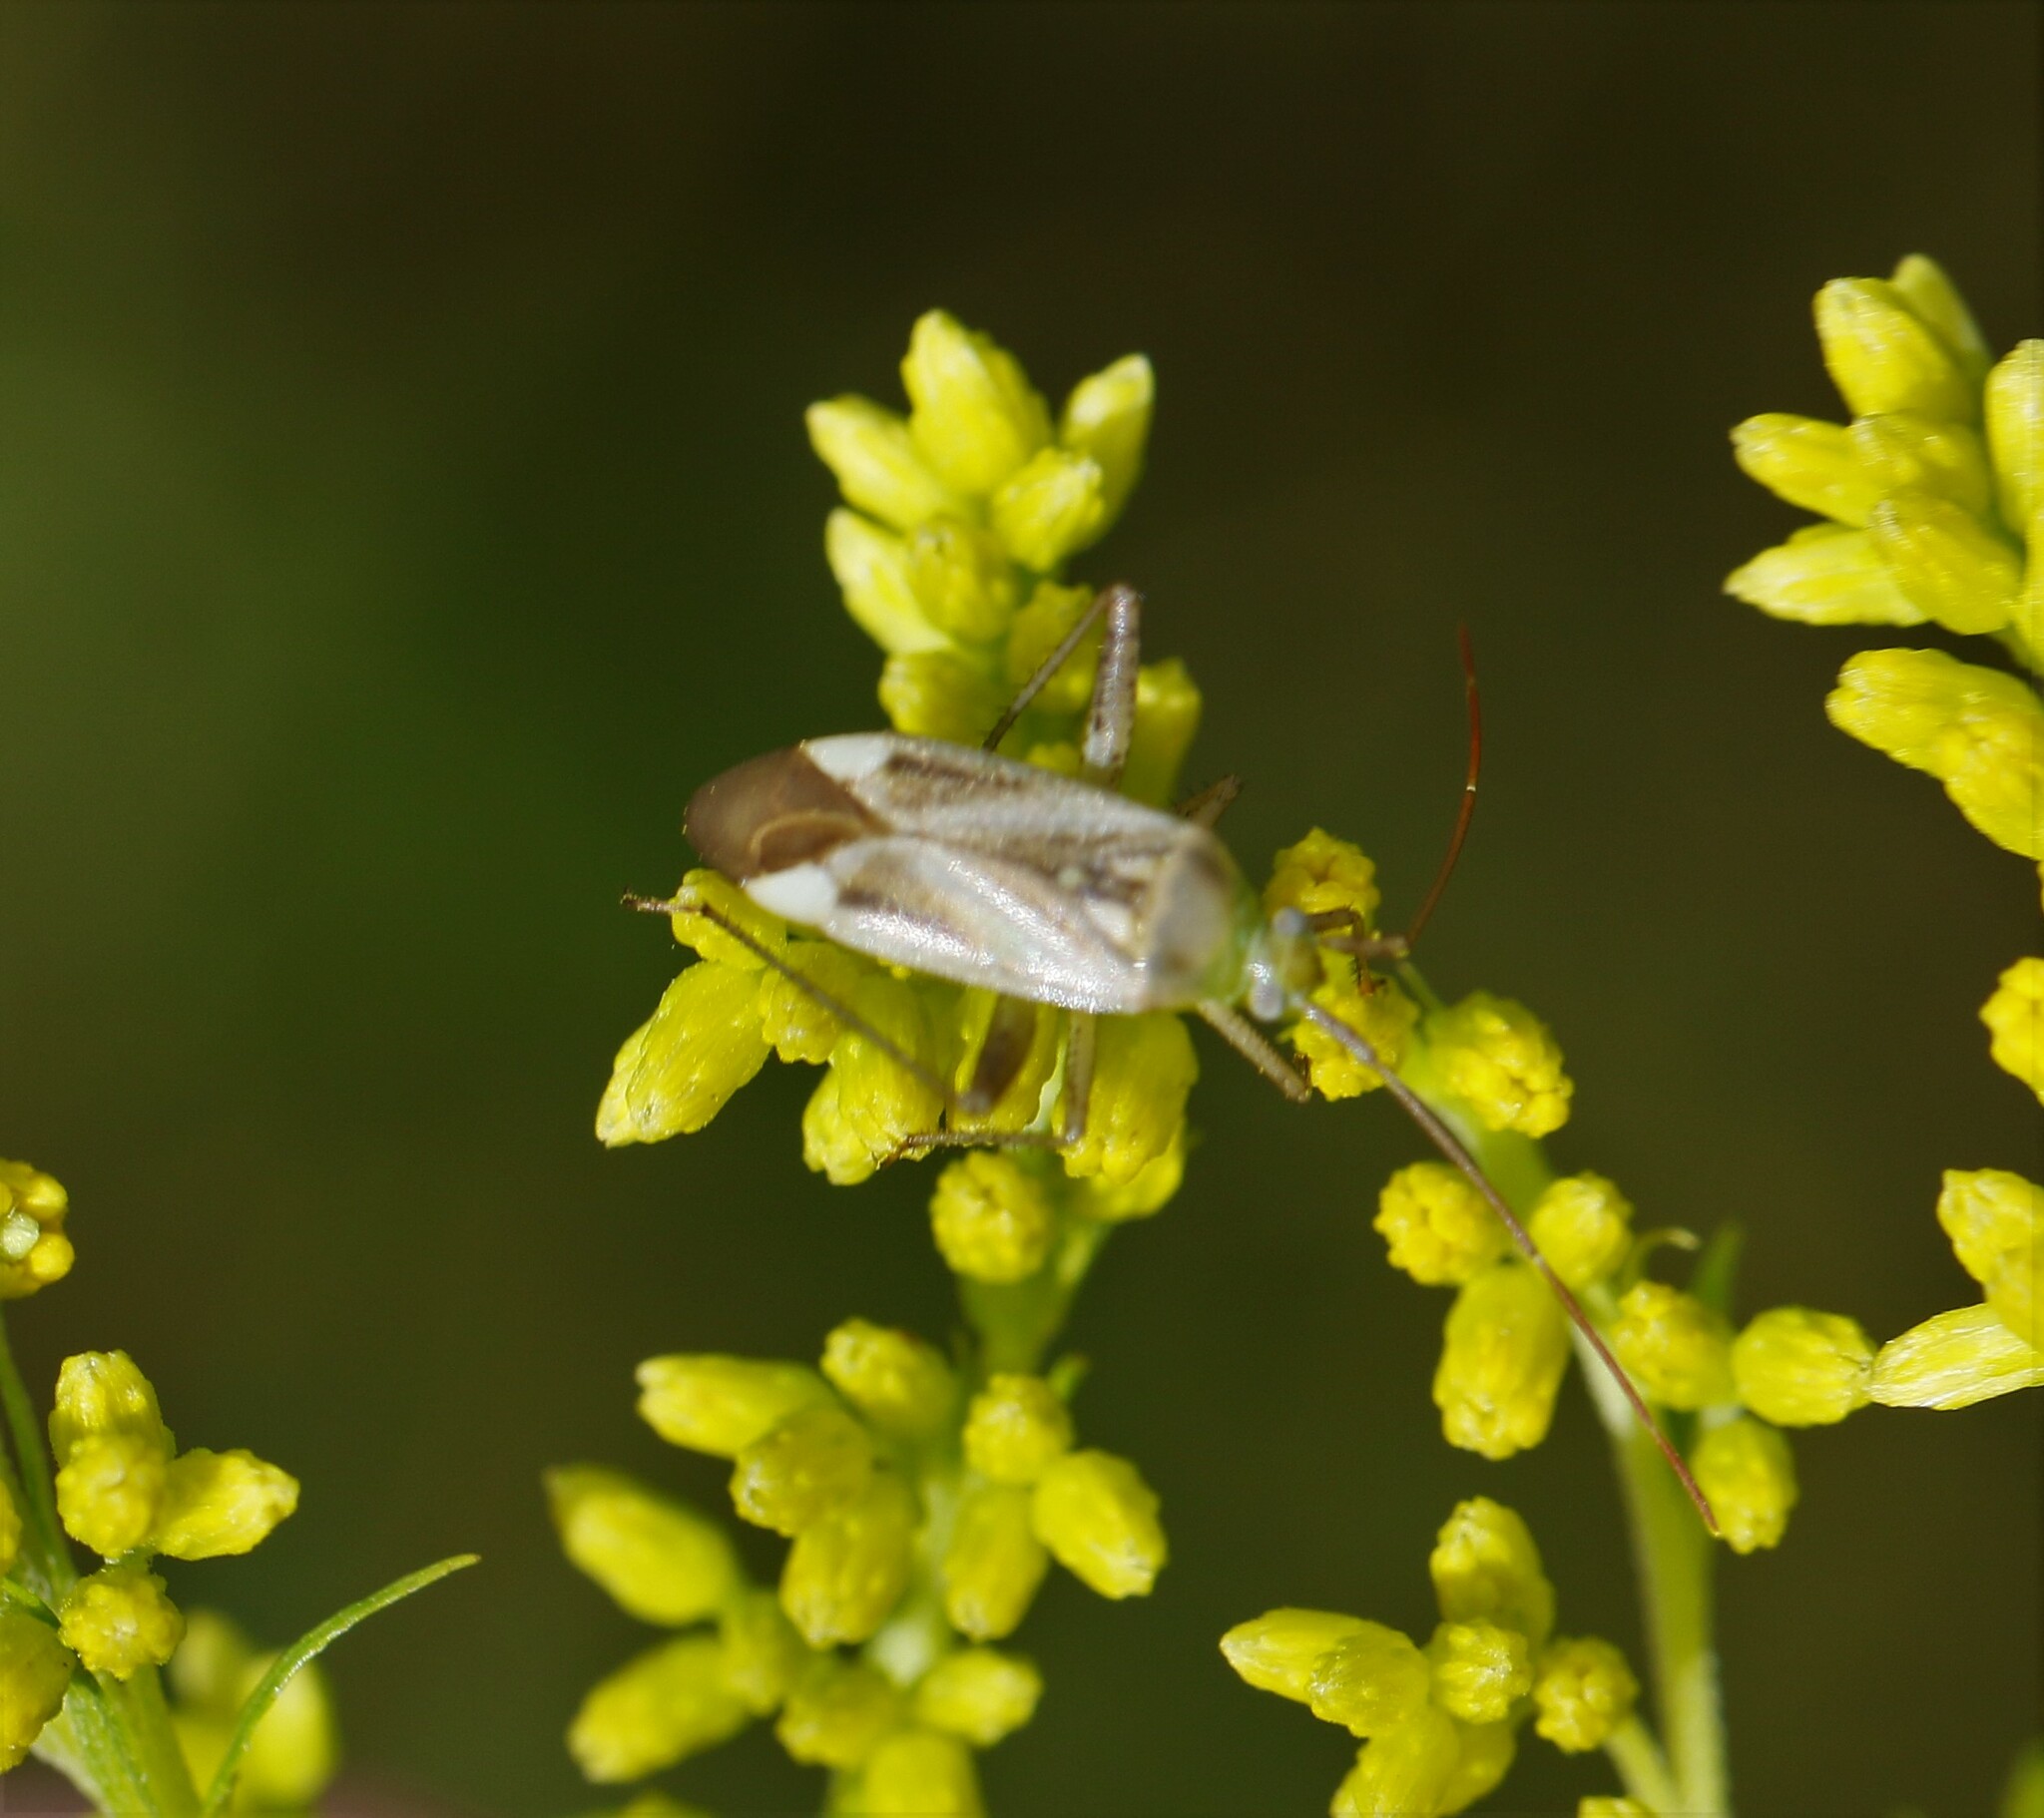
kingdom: Animalia
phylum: Arthropoda
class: Insecta
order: Hemiptera
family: Miridae
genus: Adelphocoris
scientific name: Adelphocoris lineolatus
